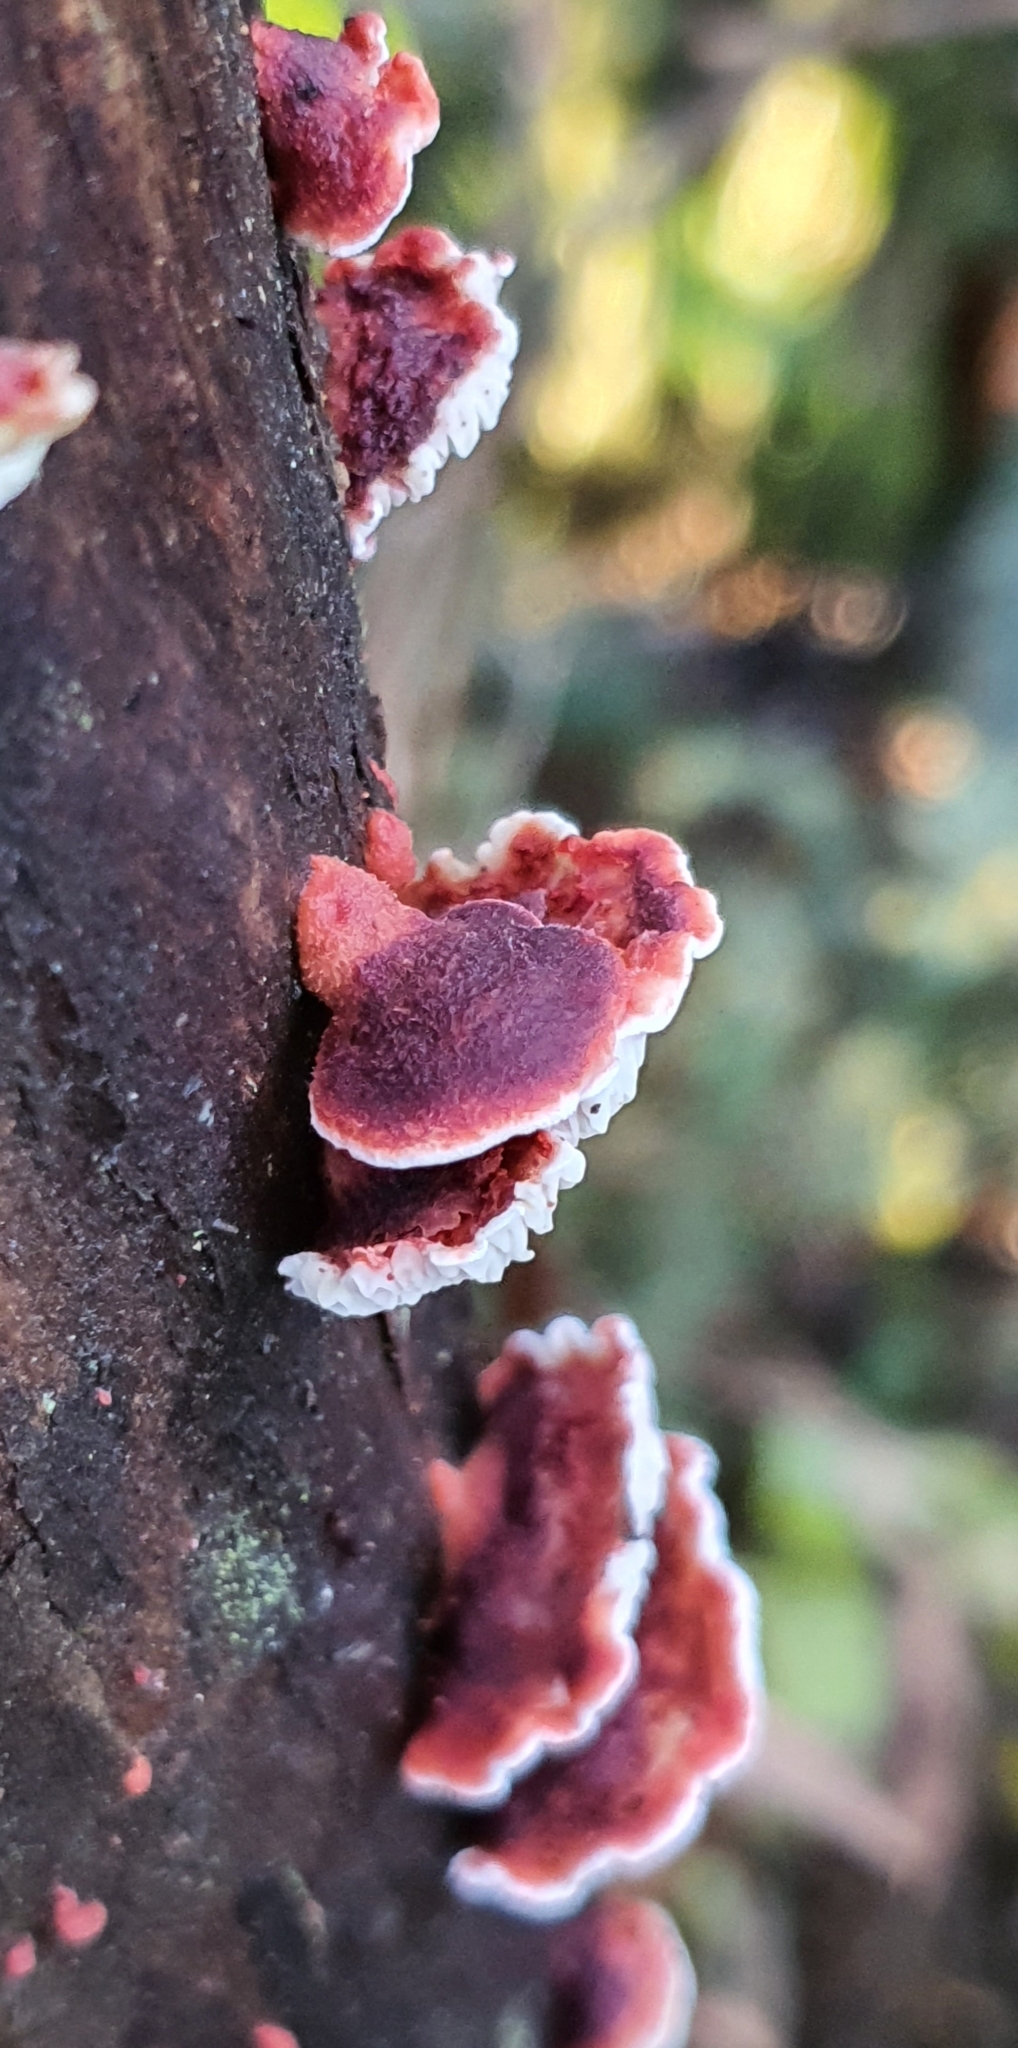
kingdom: Fungi
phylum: Basidiomycota
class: Agaricomycetes
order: Polyporales
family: Meruliaceae
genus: Phlebia
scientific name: Phlebia
